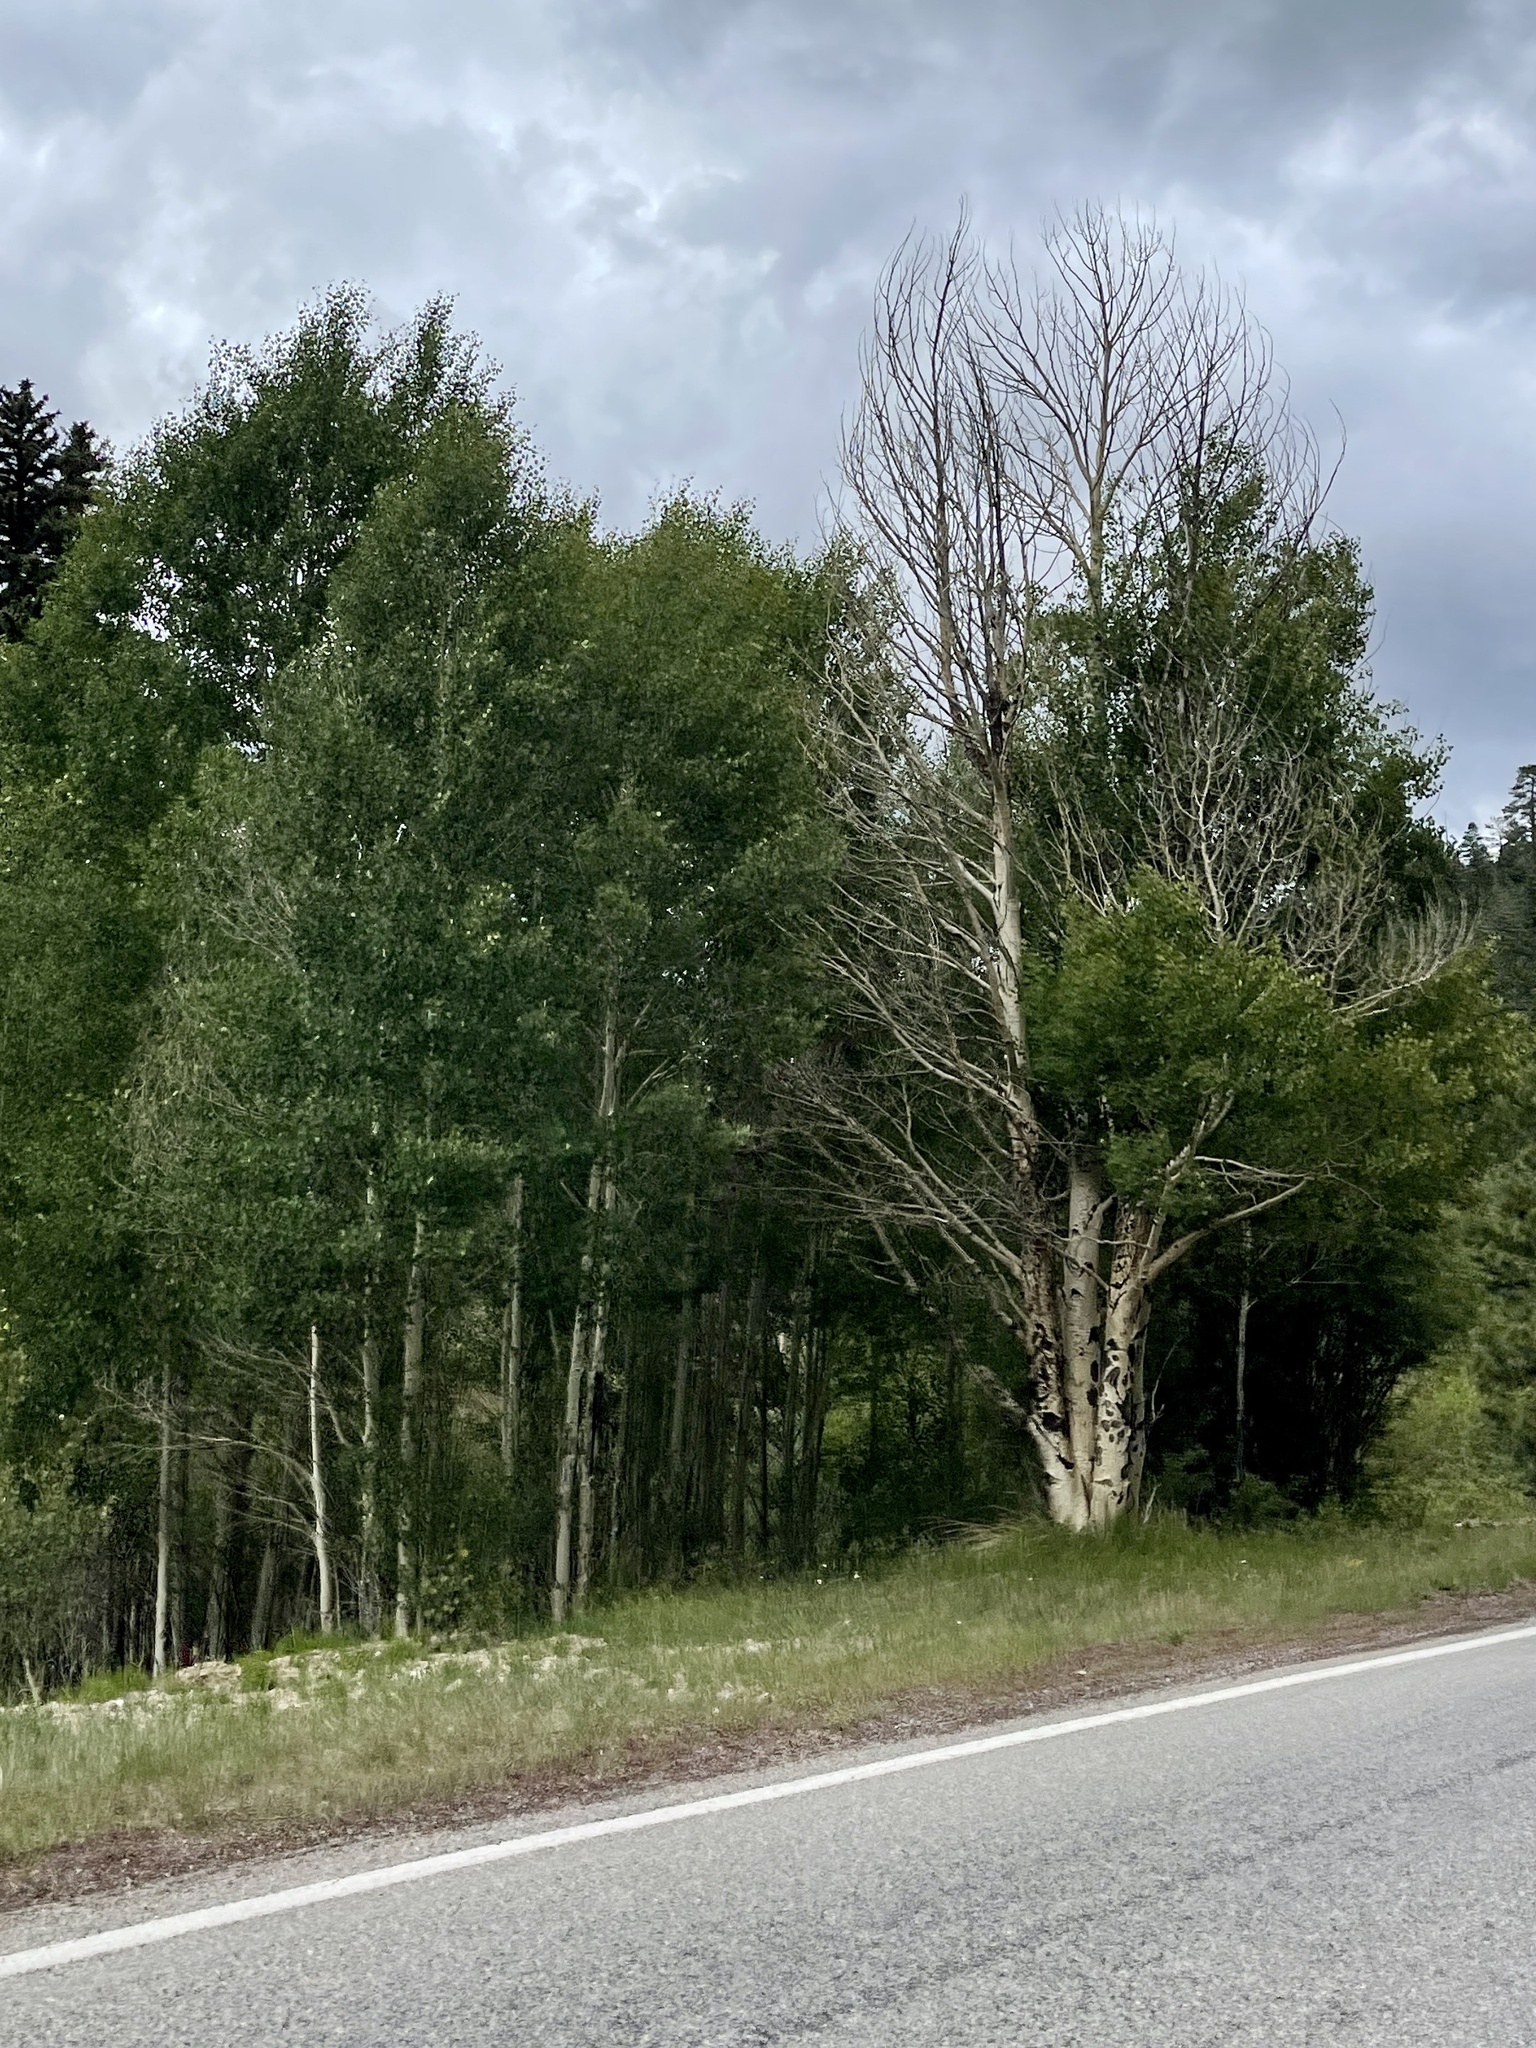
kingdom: Plantae
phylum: Tracheophyta
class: Magnoliopsida
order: Malpighiales
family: Salicaceae
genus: Populus
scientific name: Populus tremuloides
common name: Quaking aspen
